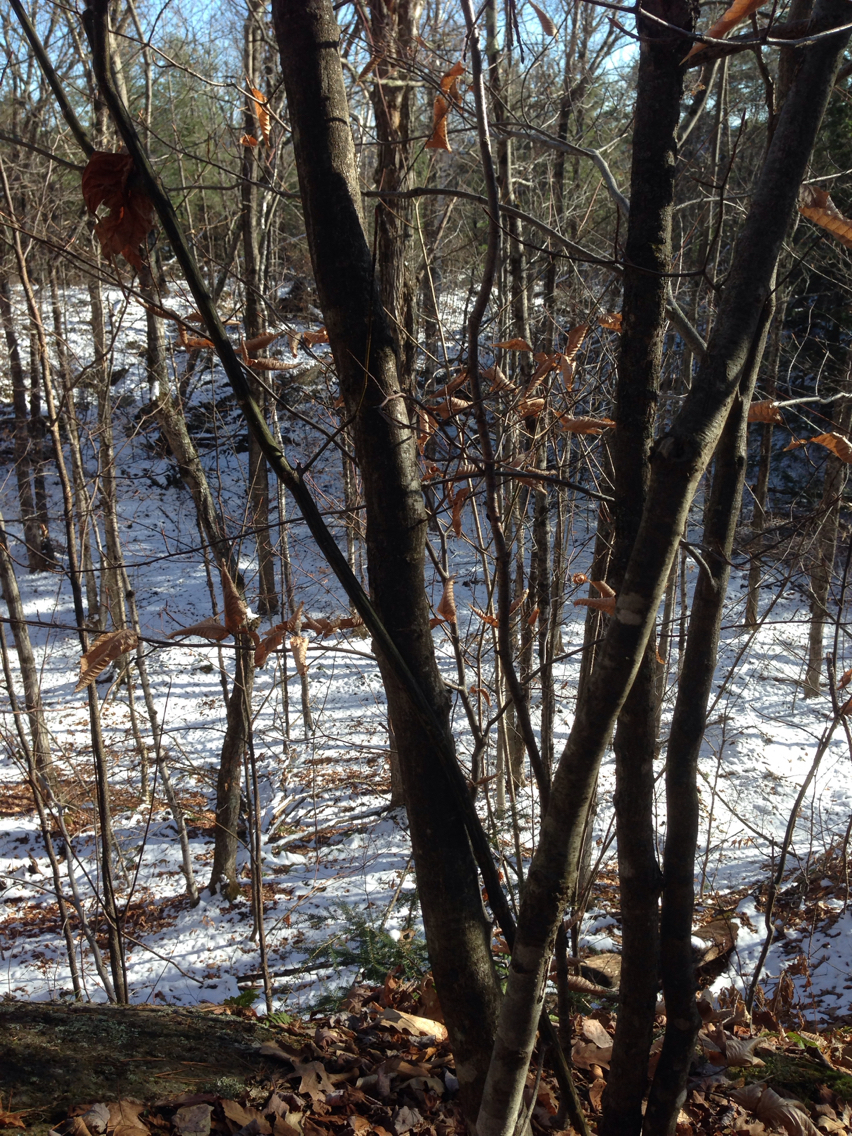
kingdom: Plantae
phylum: Tracheophyta
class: Magnoliopsida
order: Fagales
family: Fagaceae
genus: Fagus
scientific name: Fagus grandifolia
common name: American beech
